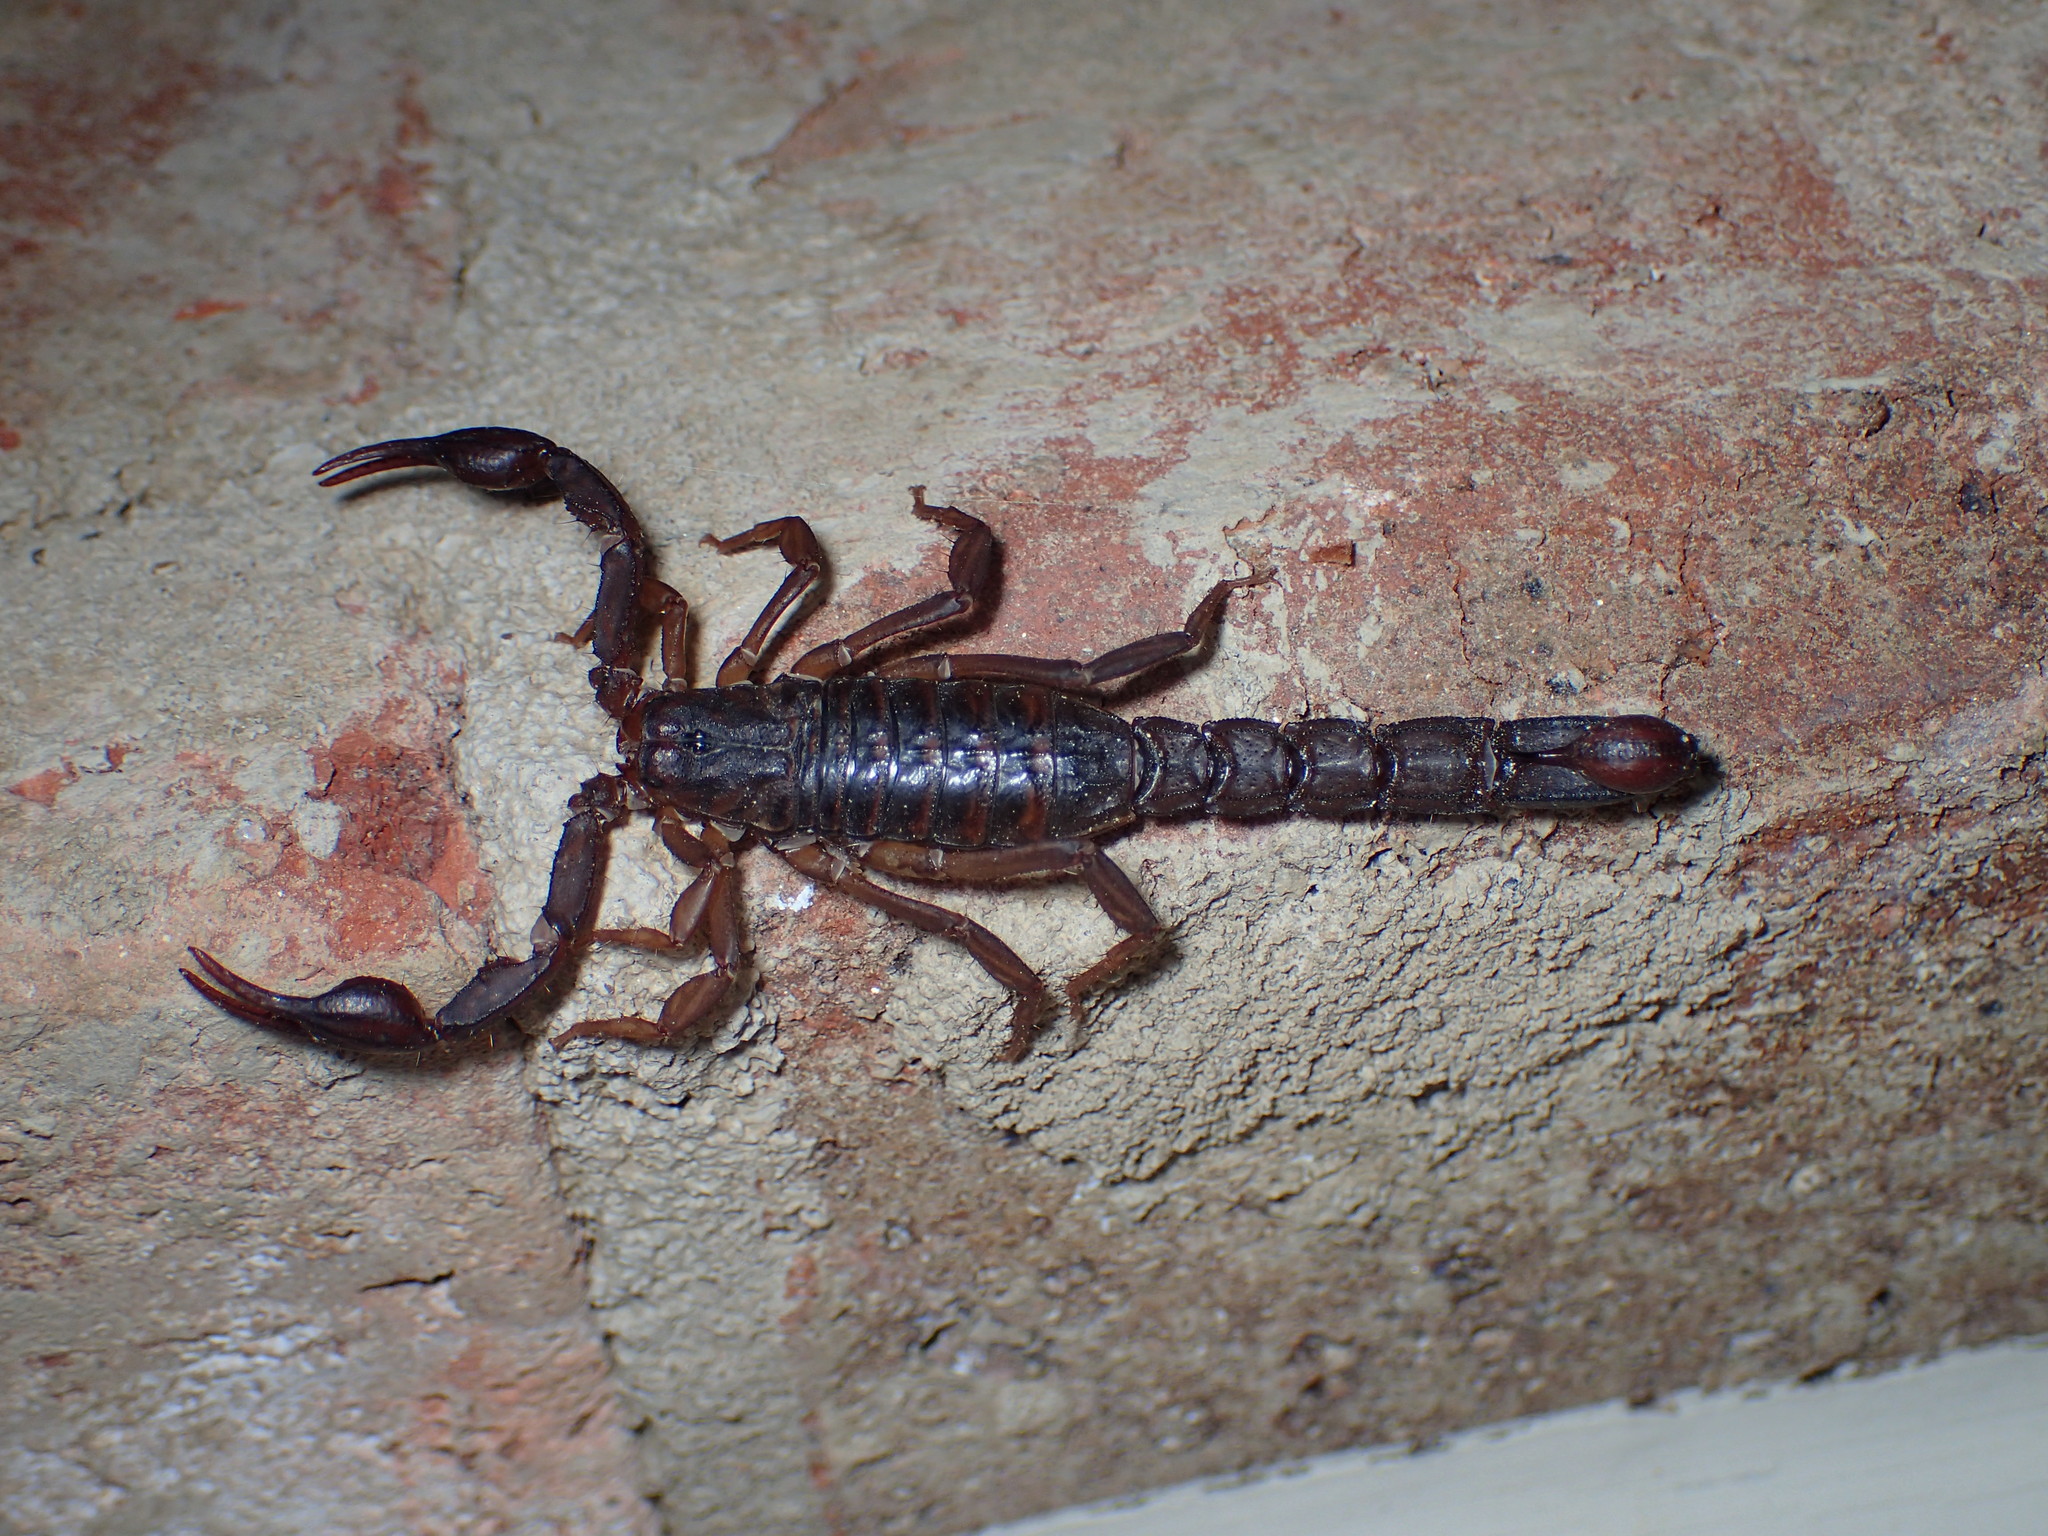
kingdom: Animalia
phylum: Arthropoda
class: Arachnida
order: Scorpiones
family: Vaejovidae
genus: Vaejovis
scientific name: Vaejovis carolinianus
